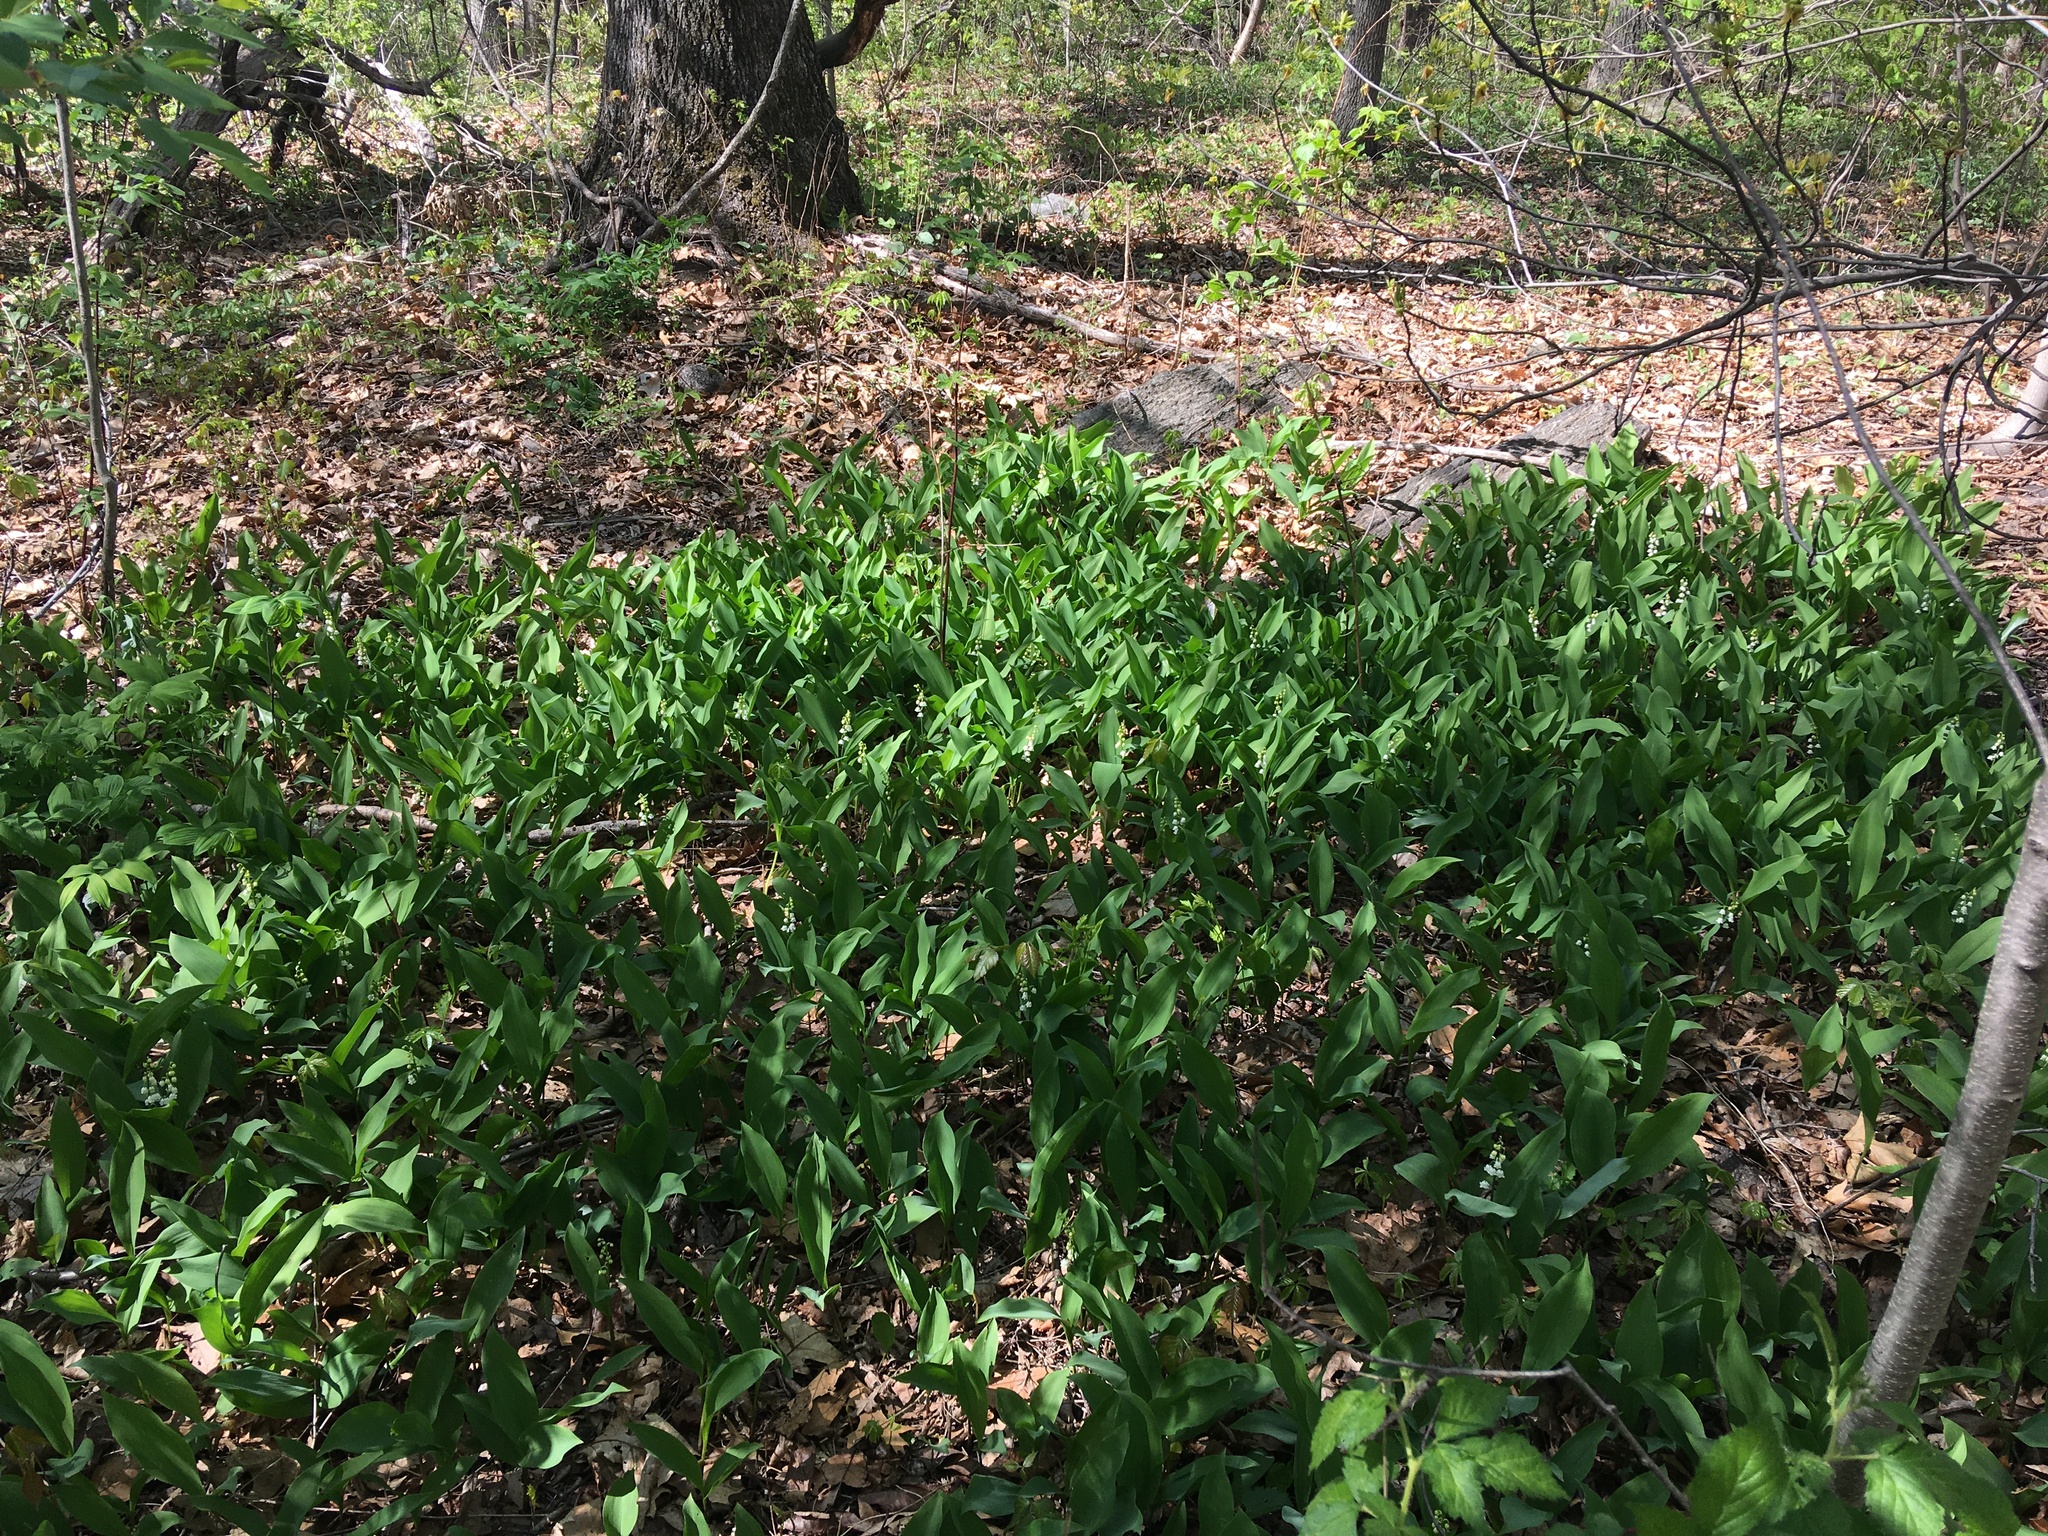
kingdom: Plantae
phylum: Tracheophyta
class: Liliopsida
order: Asparagales
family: Asparagaceae
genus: Convallaria
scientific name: Convallaria majalis
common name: Lily-of-the-valley
